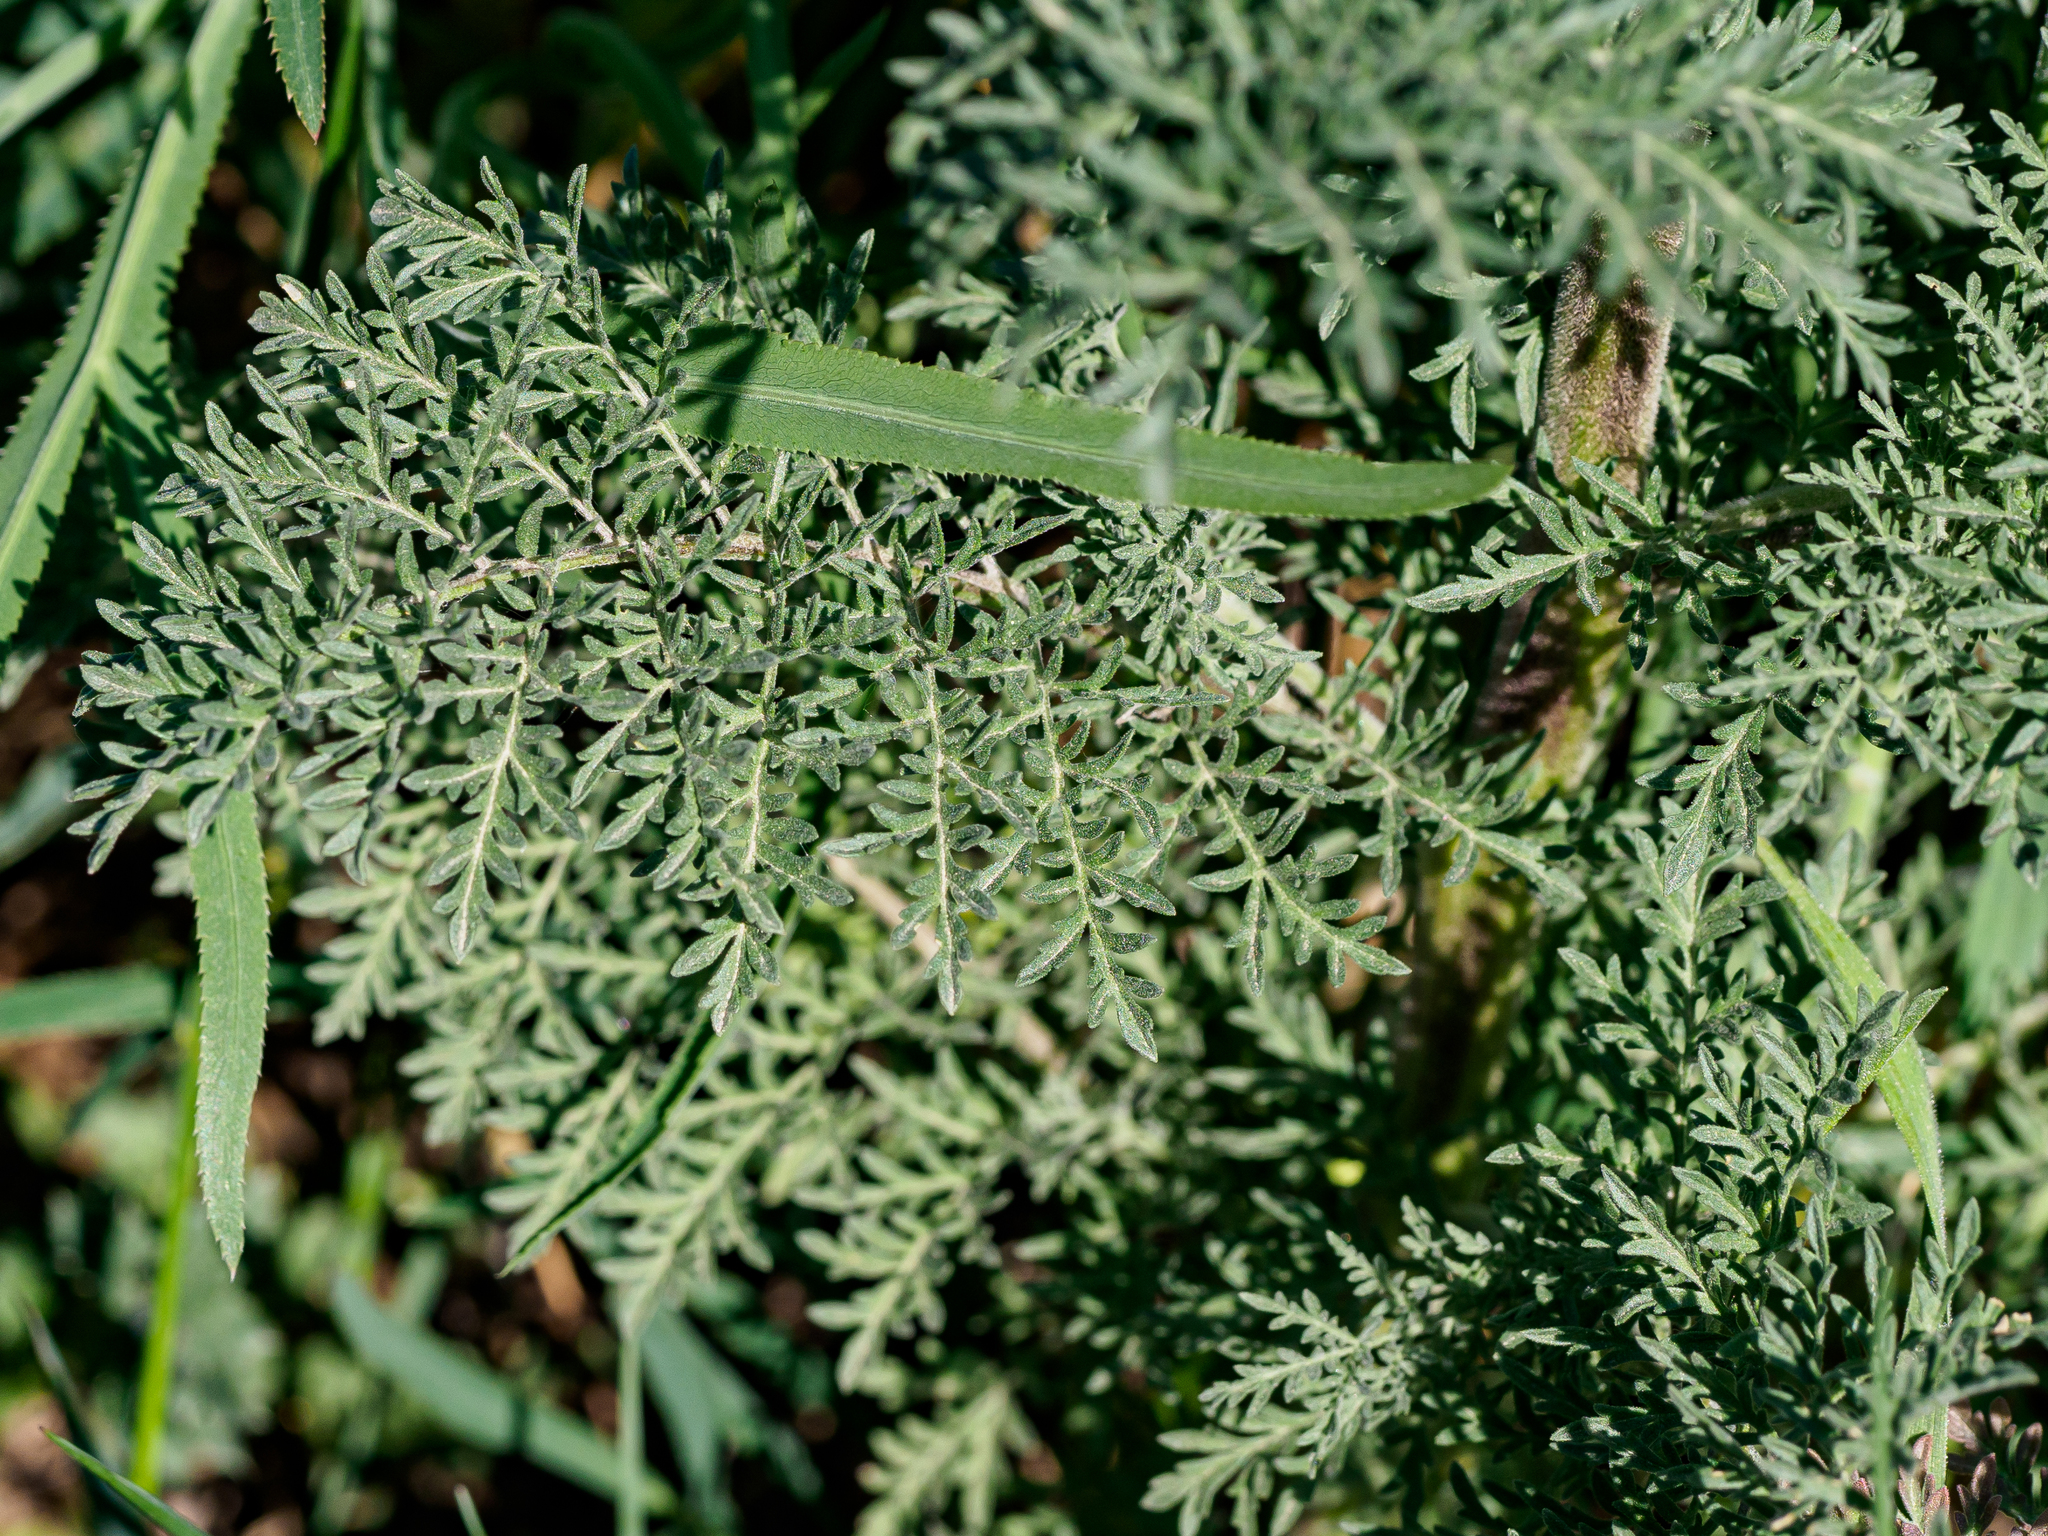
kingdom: Plantae
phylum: Tracheophyta
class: Magnoliopsida
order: Brassicales
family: Brassicaceae
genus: Descurainia
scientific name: Descurainia sophia
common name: Flixweed
